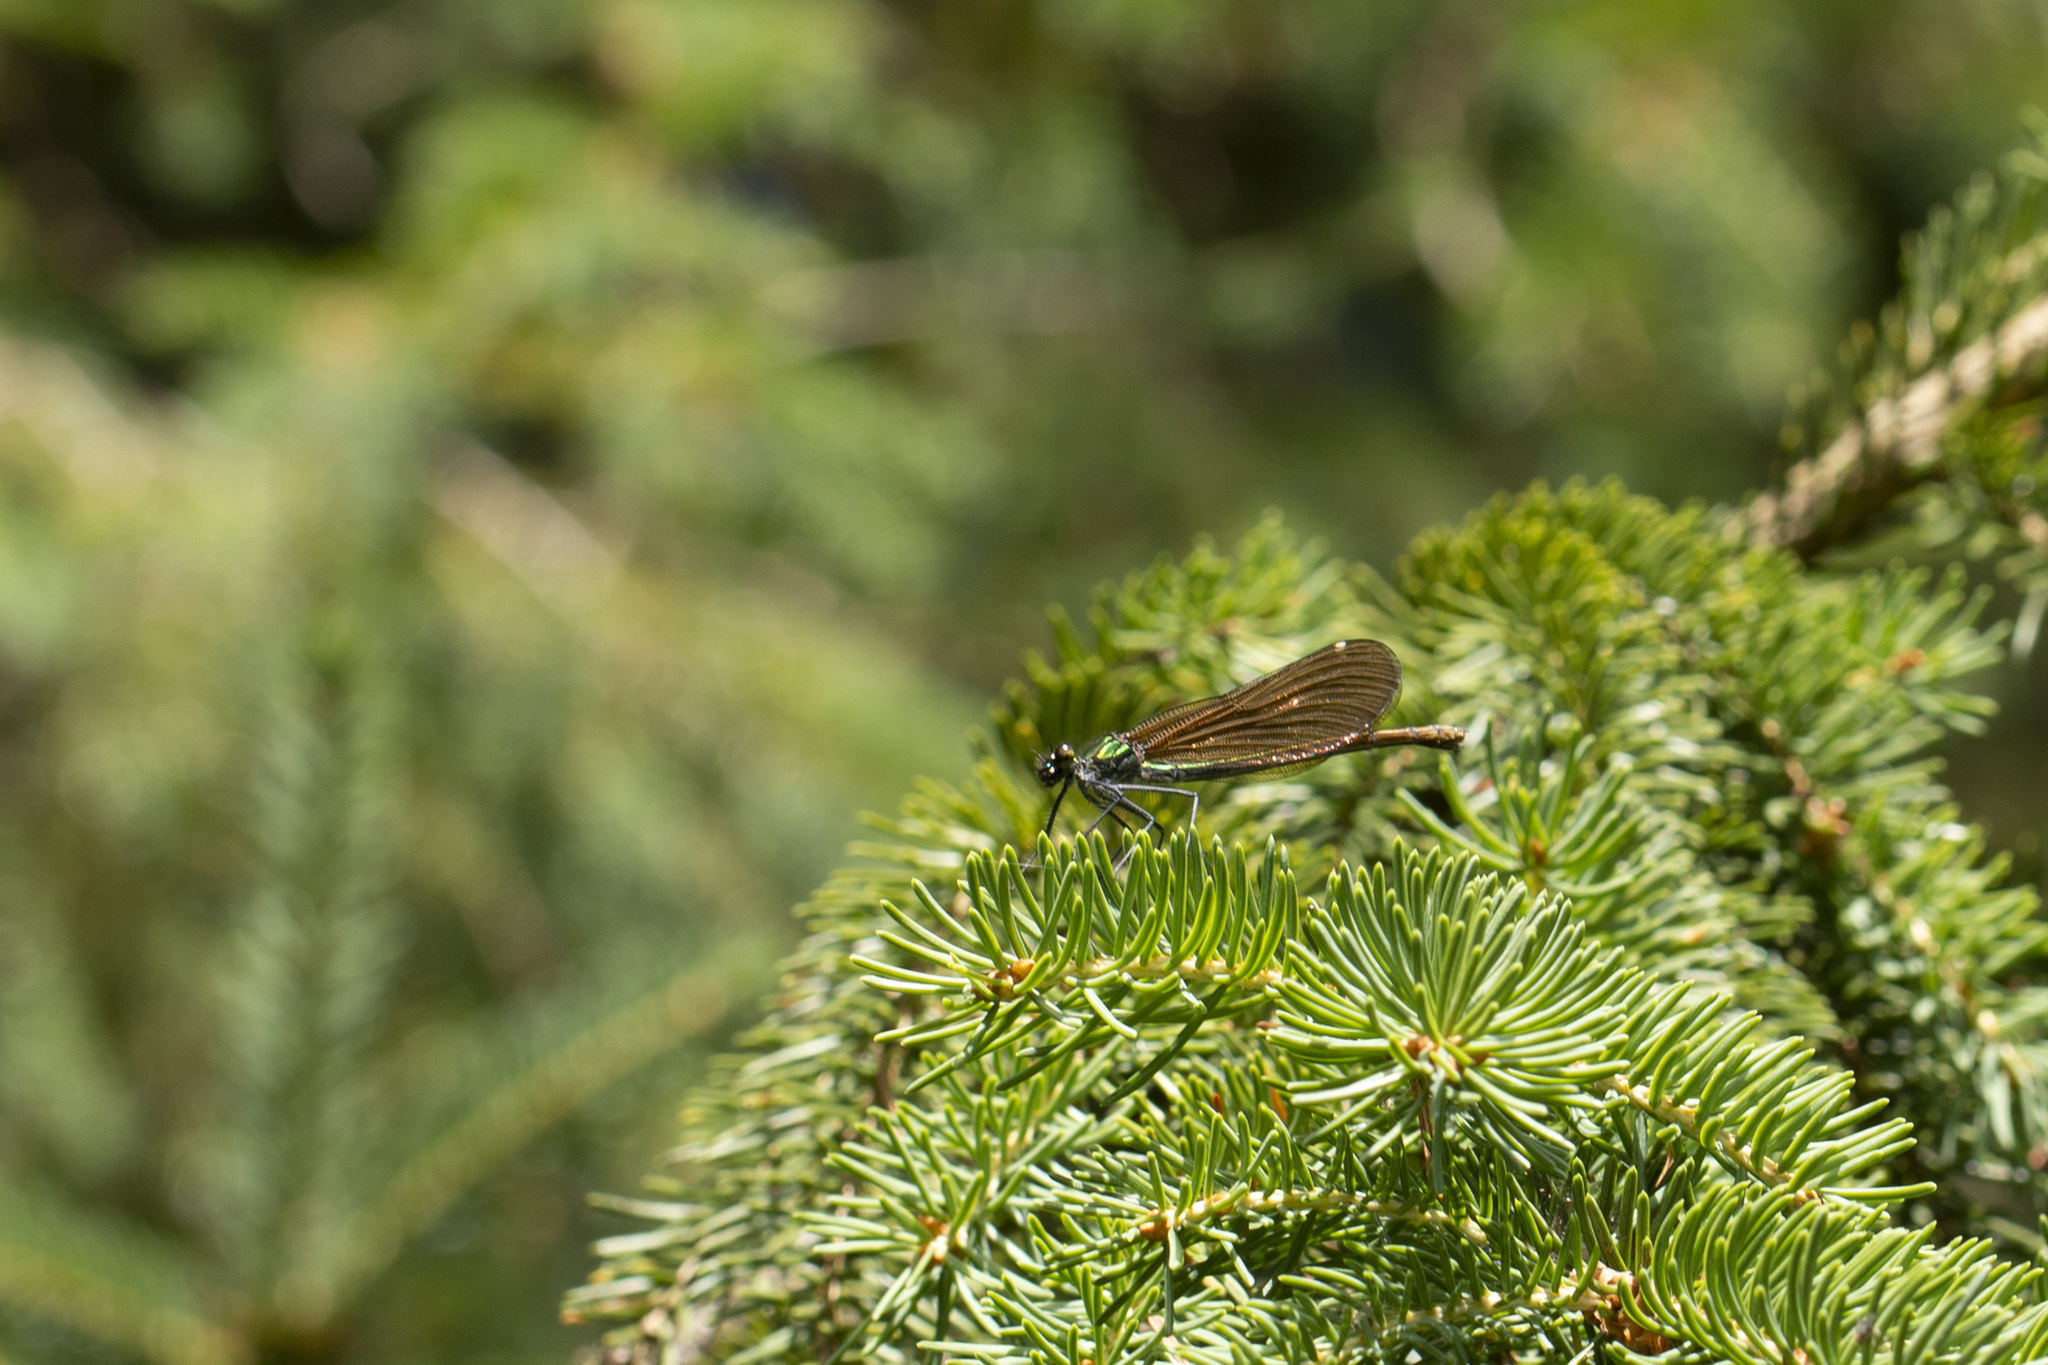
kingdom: Animalia
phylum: Arthropoda
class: Insecta
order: Odonata
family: Calopterygidae
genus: Calopteryx
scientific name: Calopteryx virgo
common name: Beautiful demoiselle
